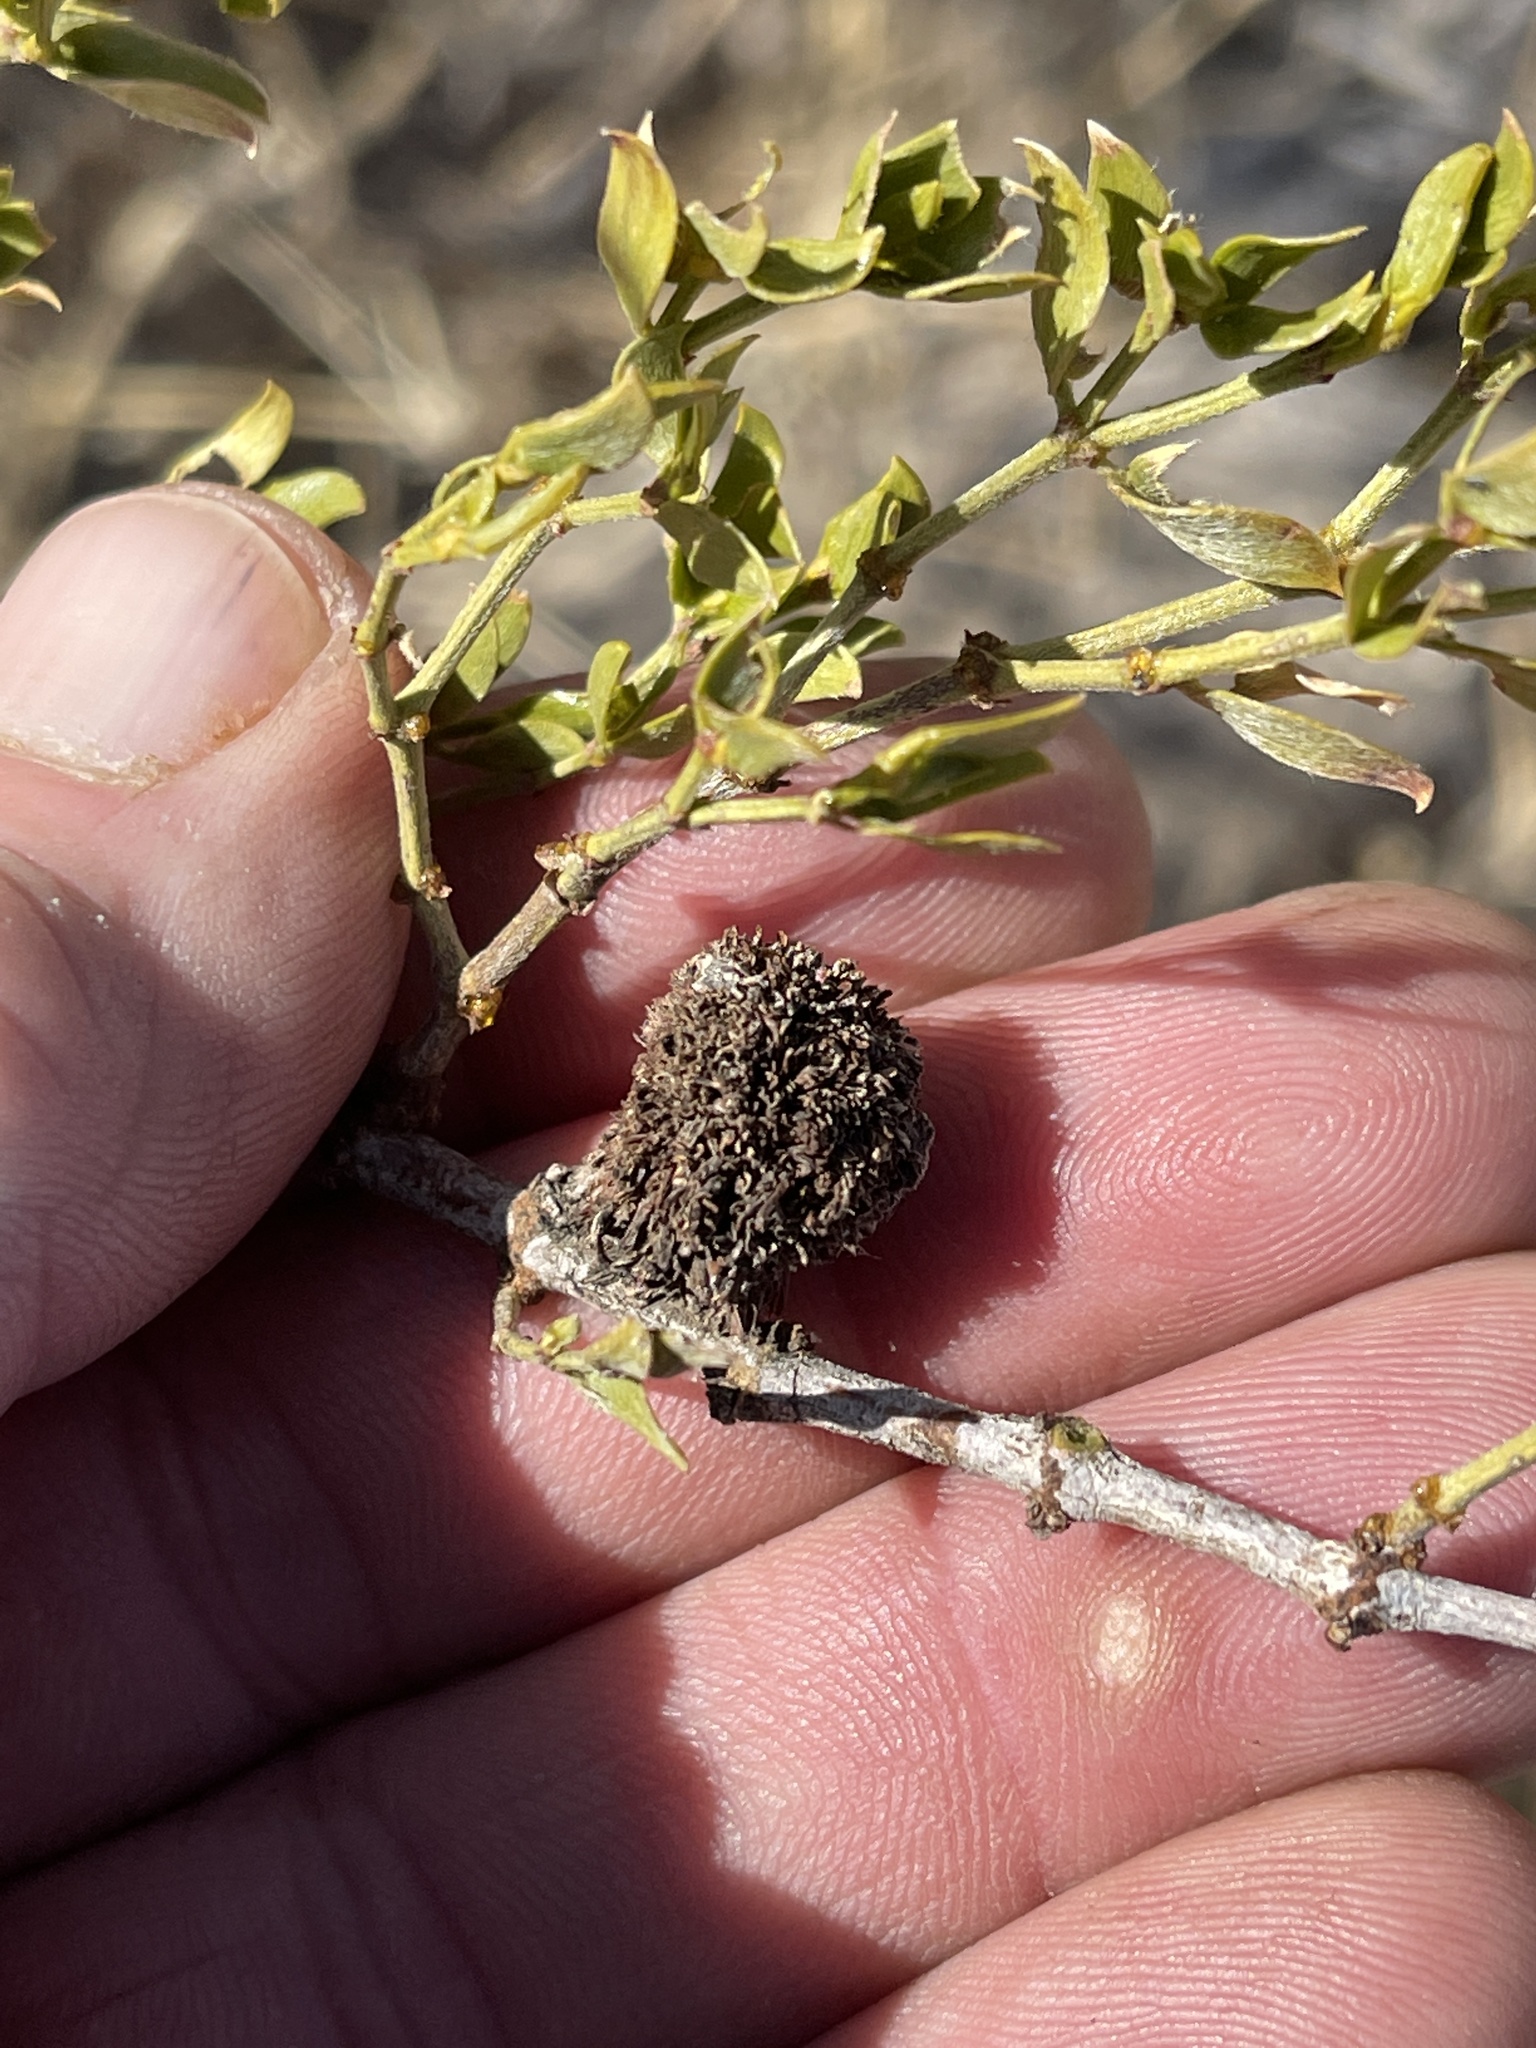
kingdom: Animalia
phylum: Arthropoda
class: Insecta
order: Diptera
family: Cecidomyiidae
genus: Asphondylia
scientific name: Asphondylia auripila
